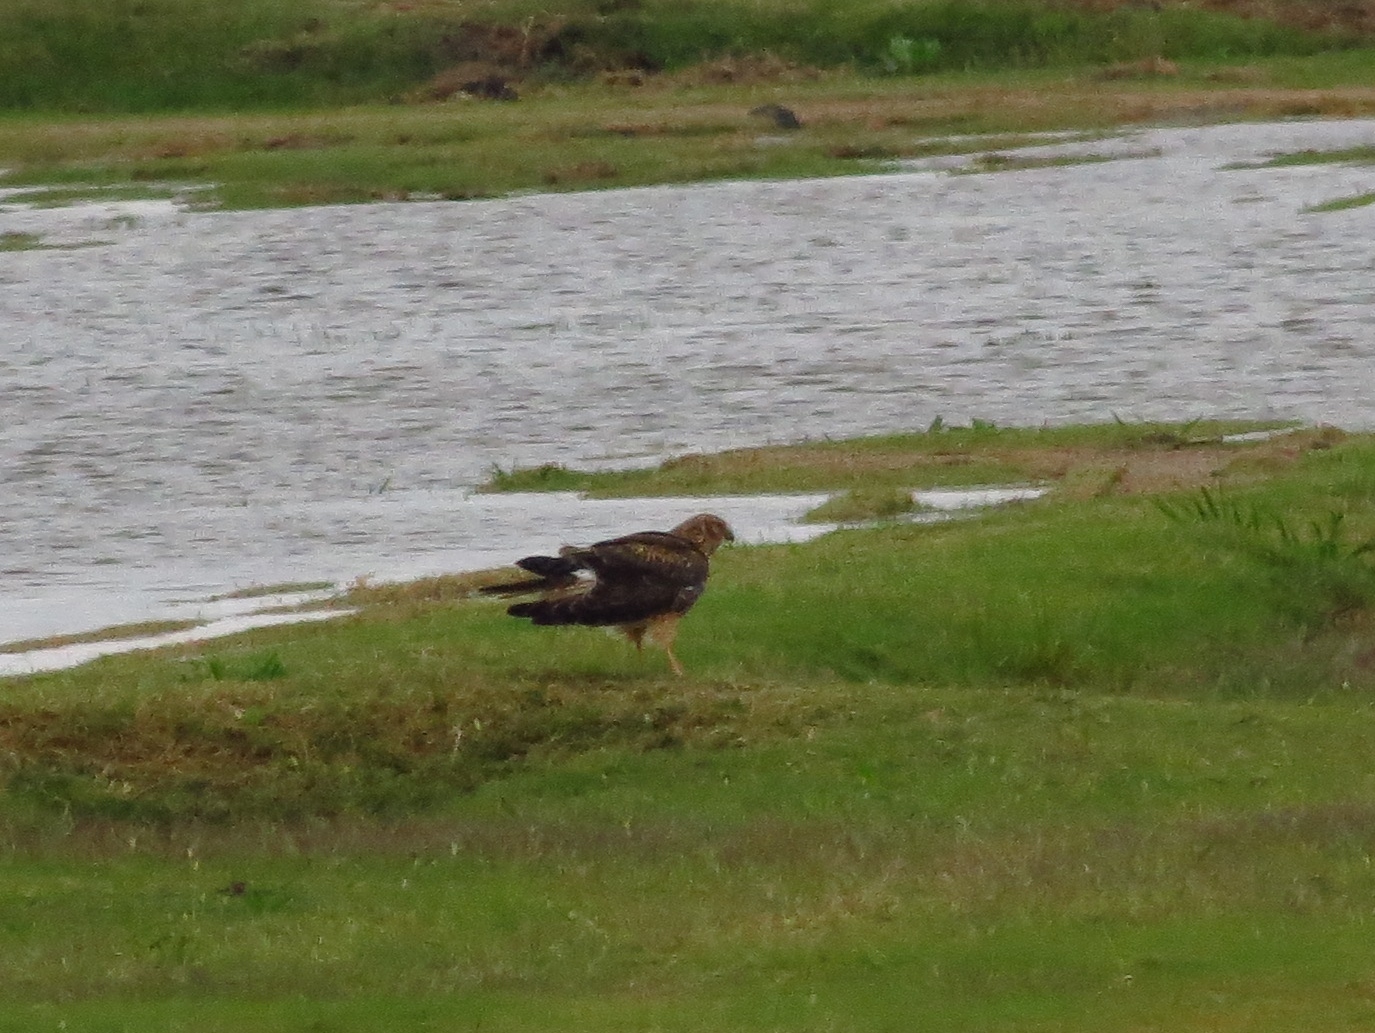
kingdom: Animalia
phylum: Chordata
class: Aves
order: Accipitriformes
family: Accipitridae
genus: Circus
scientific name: Circus cyaneus
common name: Hen harrier
